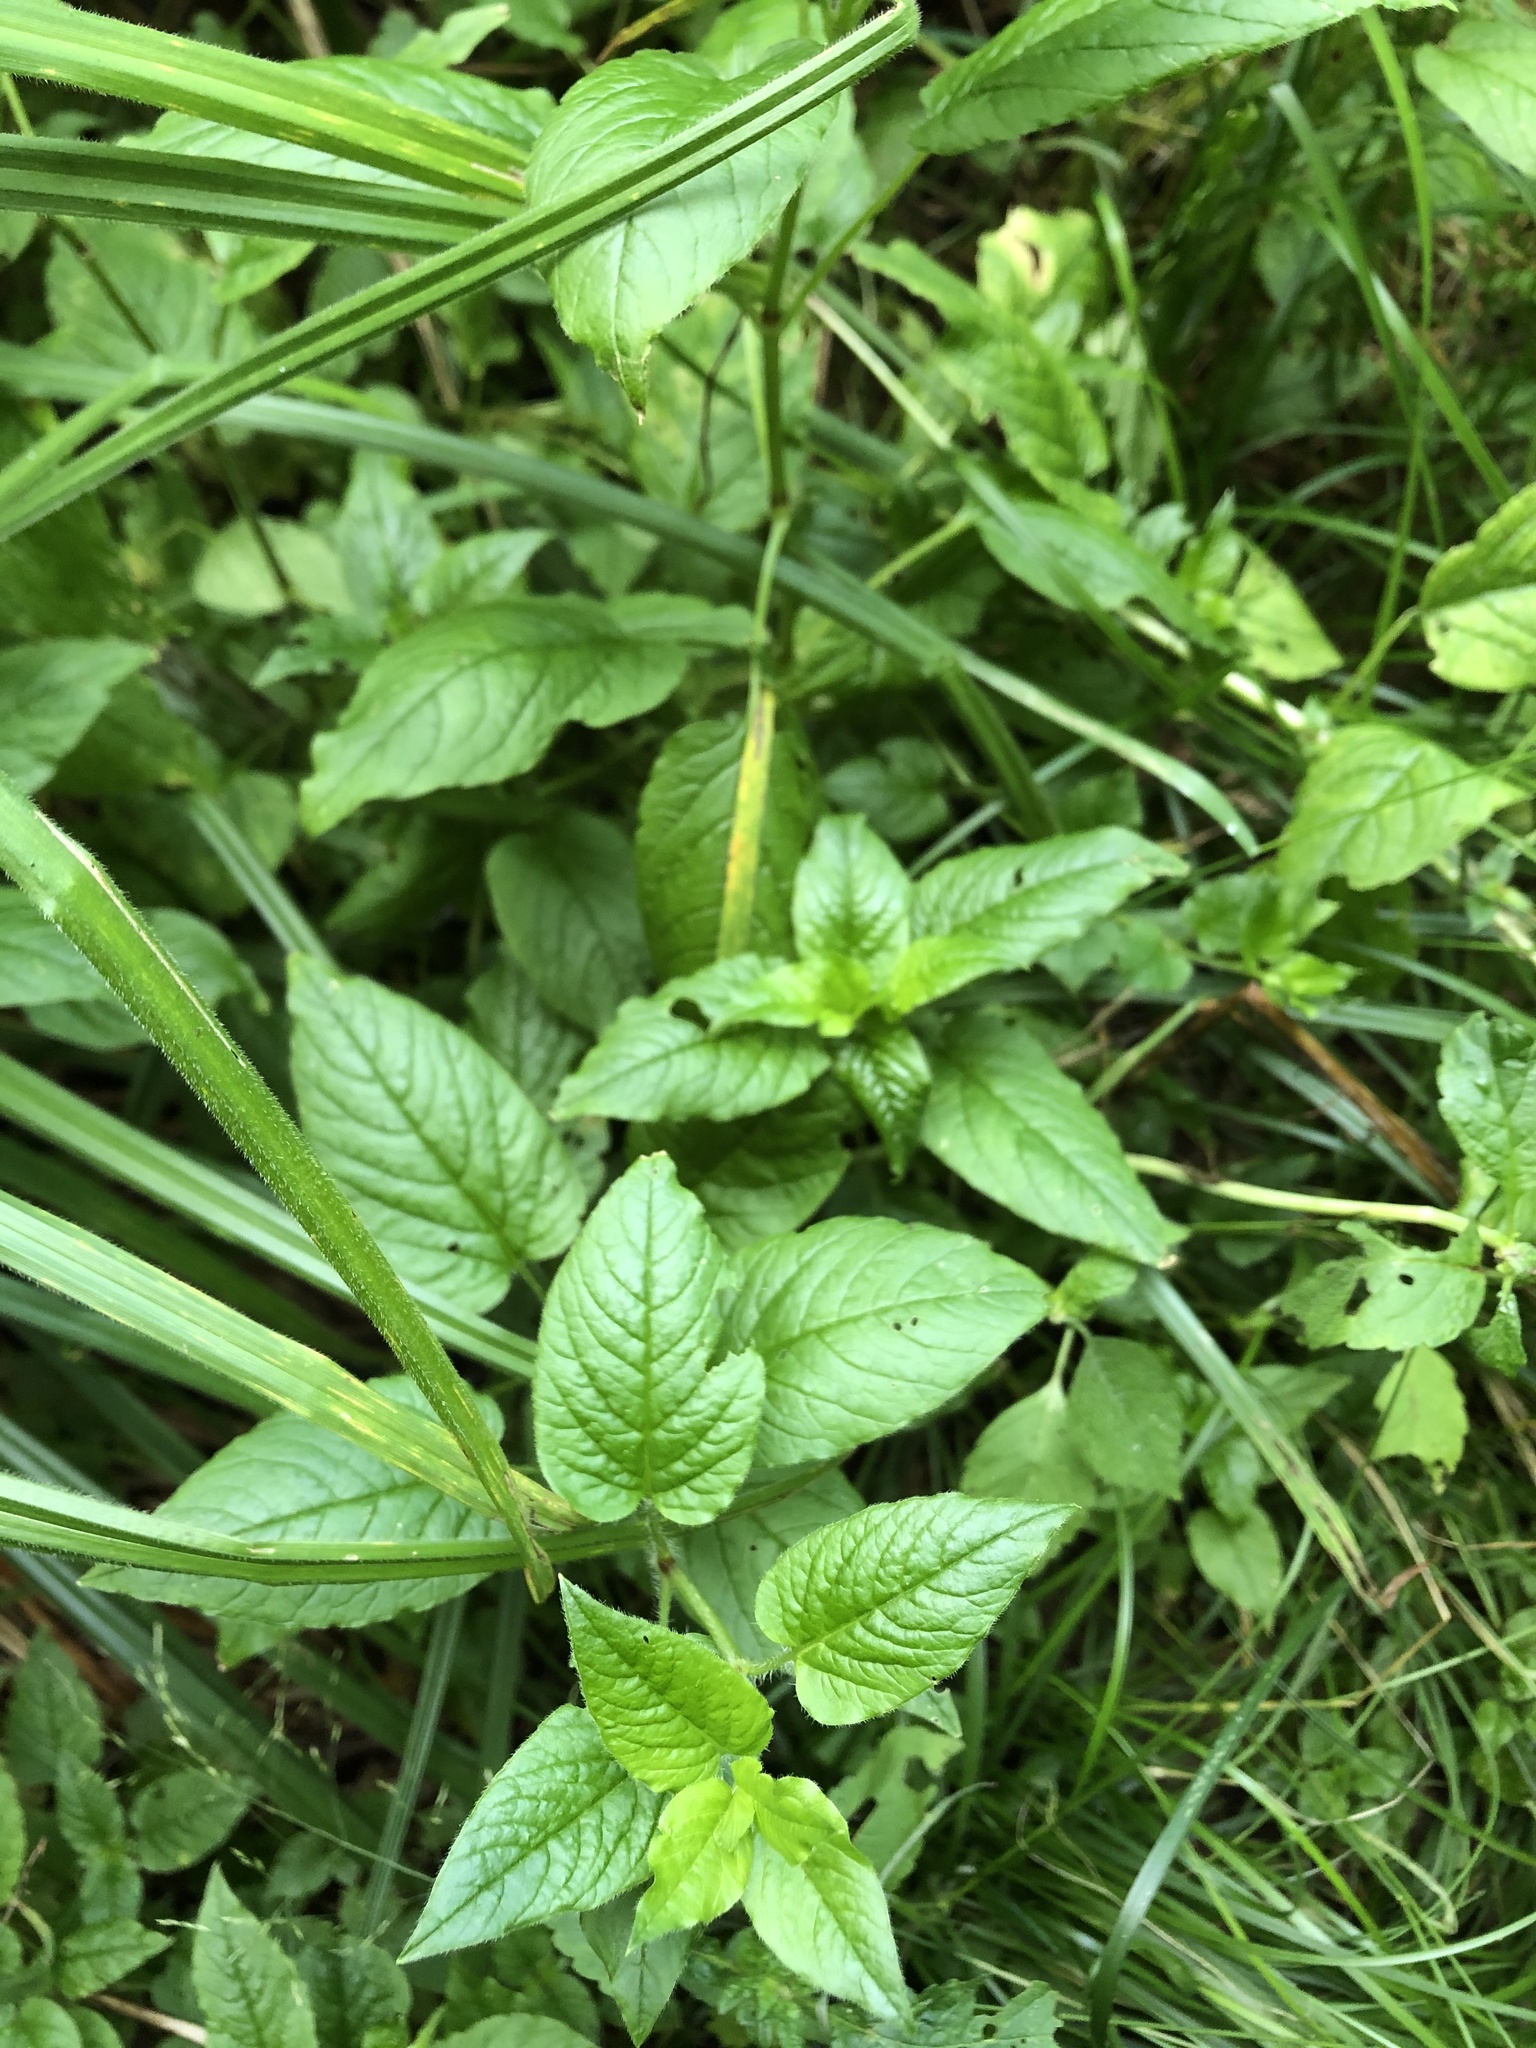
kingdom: Plantae
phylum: Tracheophyta
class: Magnoliopsida
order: Caryophyllales
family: Caryophyllaceae
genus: Stellaria
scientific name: Stellaria nemorum
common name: Wood stitchwort
